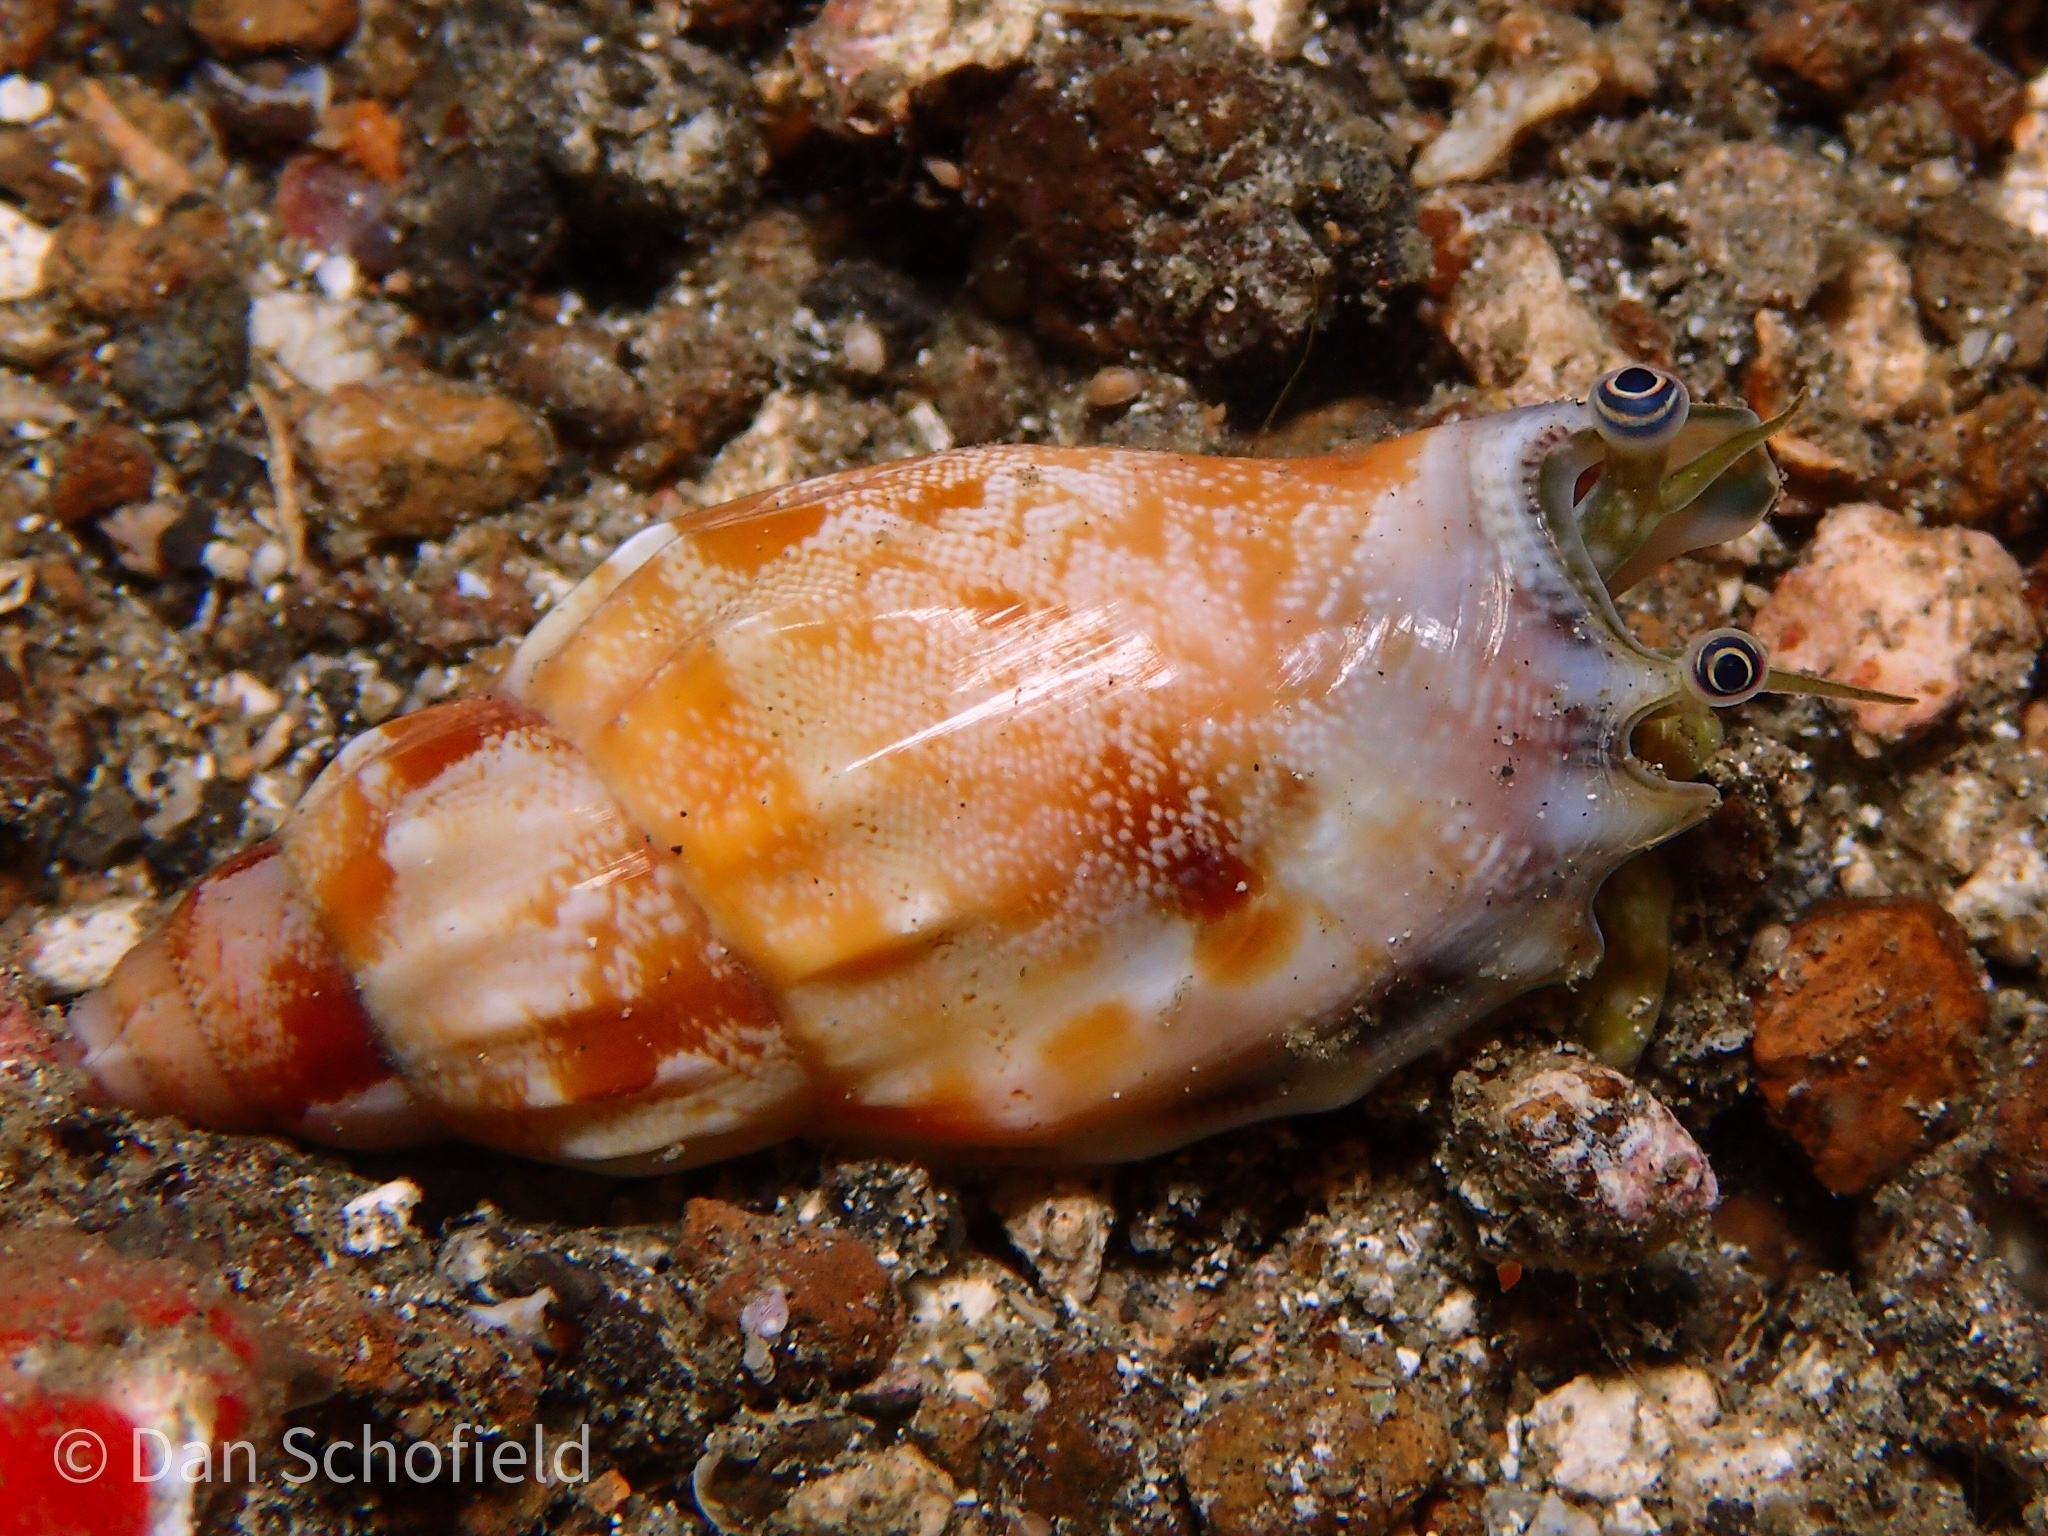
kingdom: Animalia
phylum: Mollusca
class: Gastropoda
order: Littorinimorpha
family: Strombidae
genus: Tridentarius
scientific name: Tridentarius dentatus
